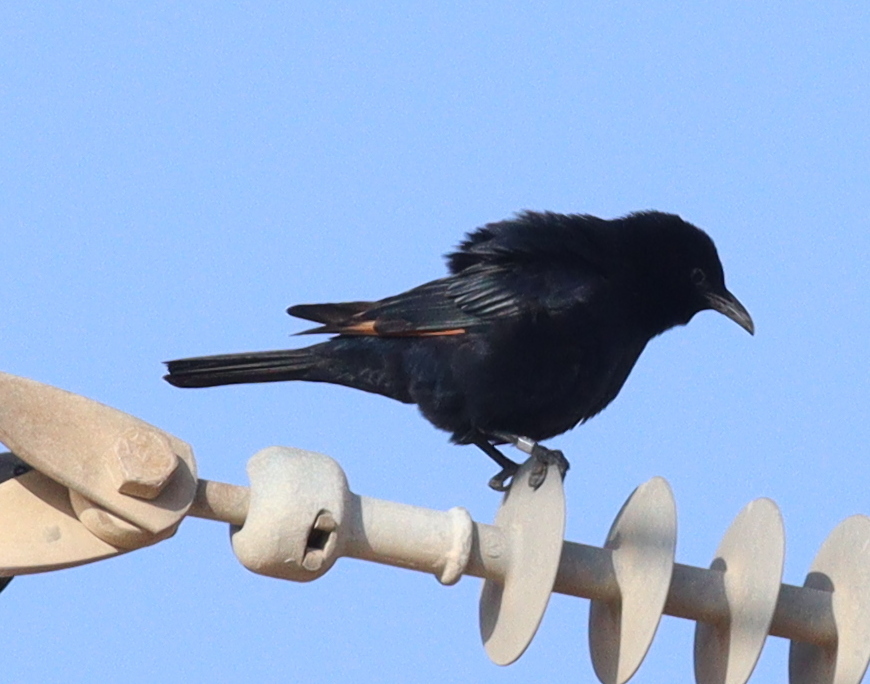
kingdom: Animalia
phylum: Chordata
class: Aves
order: Passeriformes
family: Sturnidae
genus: Onychognathus
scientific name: Onychognathus tristramii
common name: Tristram's starling
